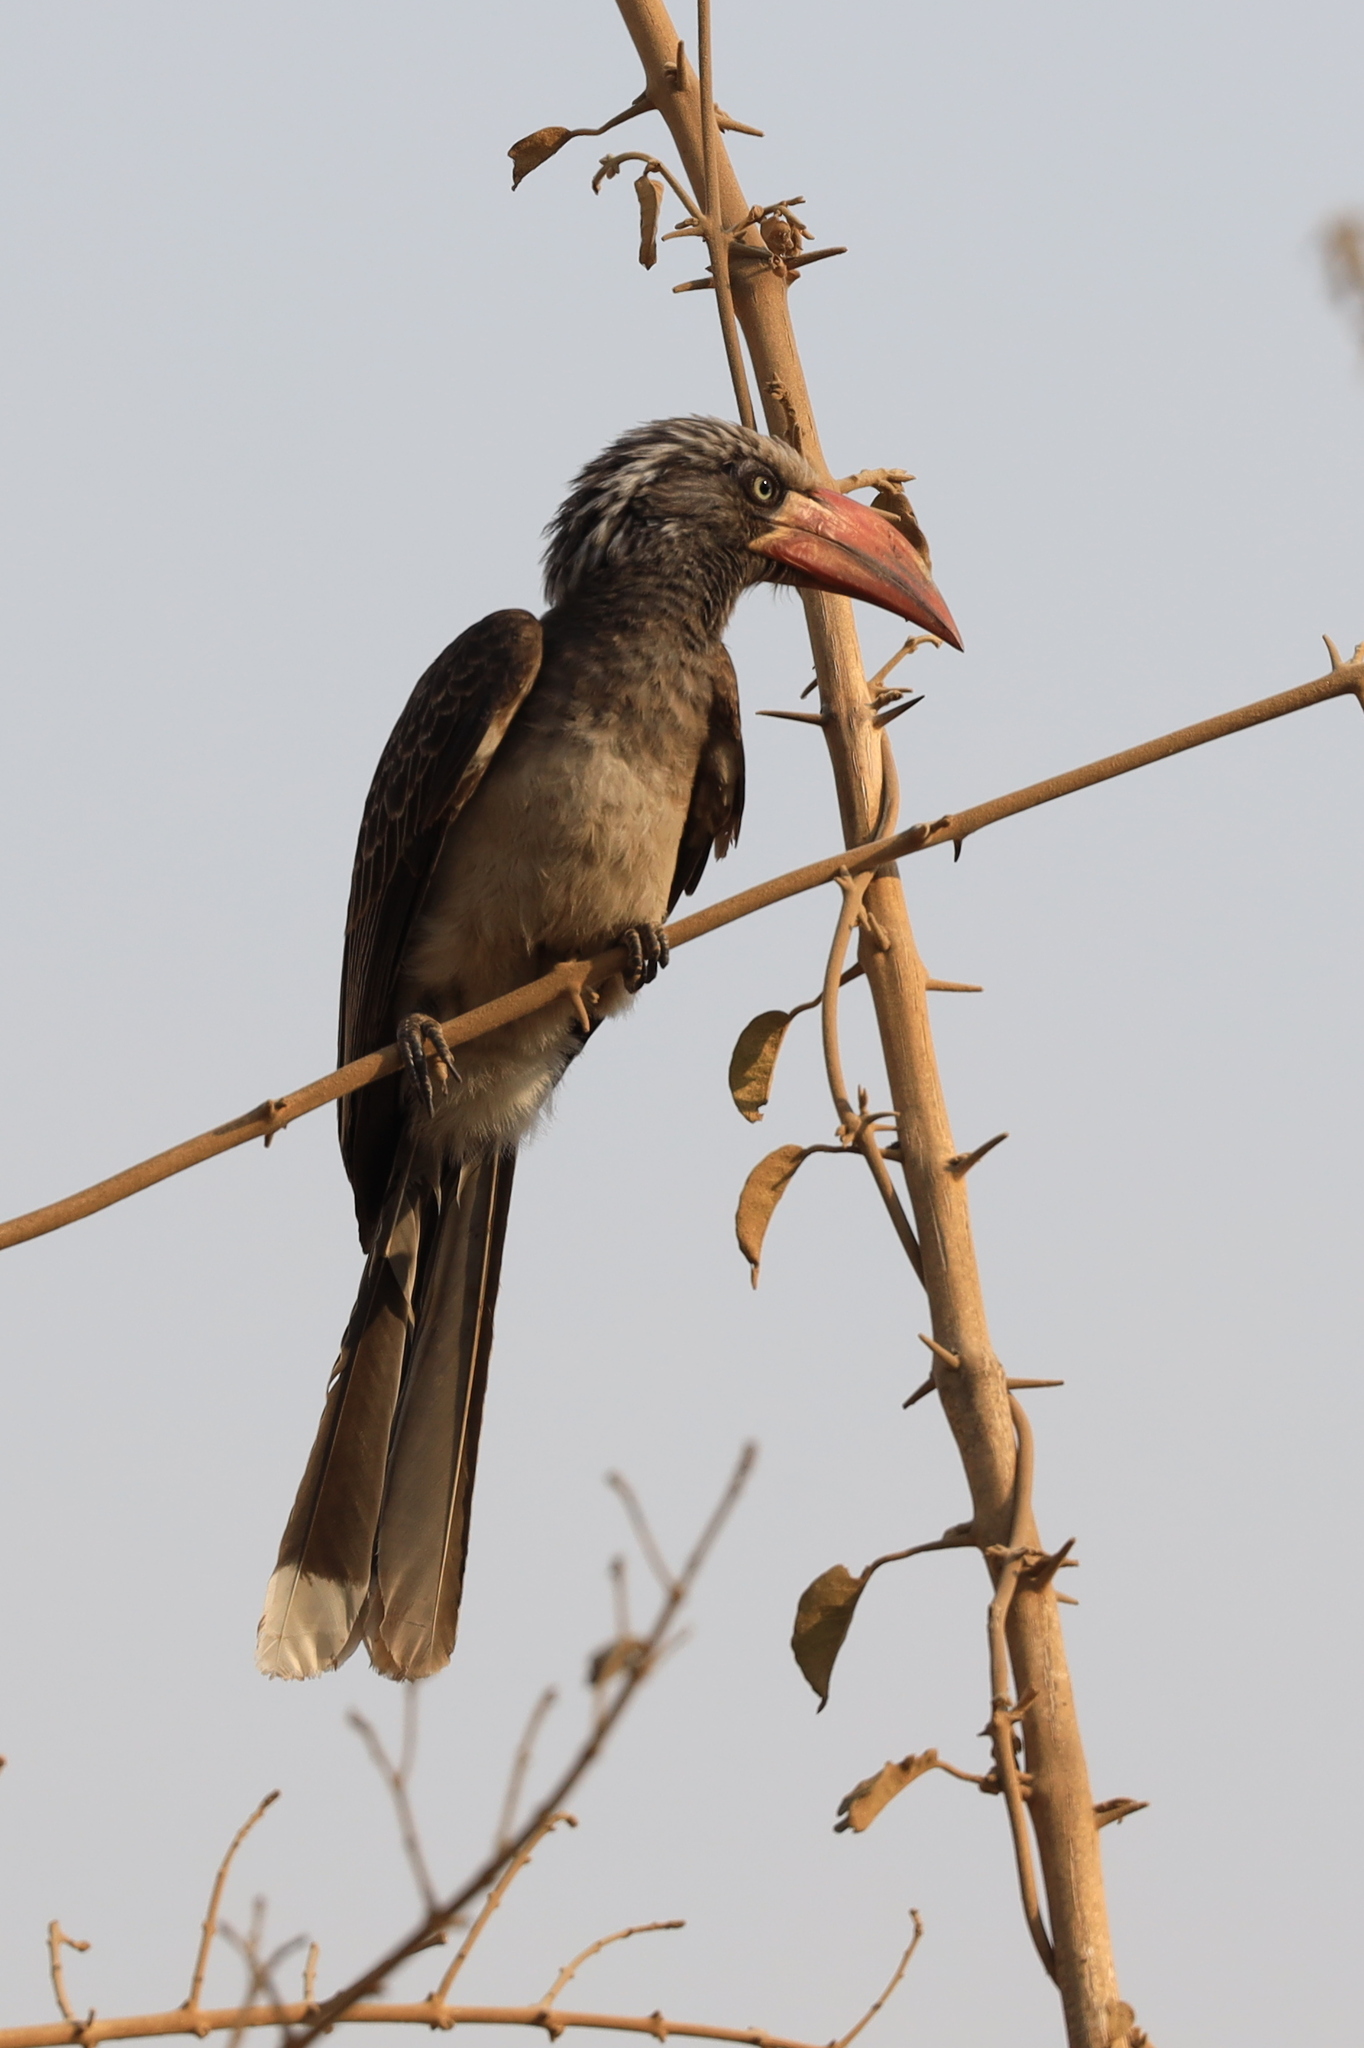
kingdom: Animalia
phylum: Chordata
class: Aves
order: Bucerotiformes
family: Bucerotidae
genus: Lophoceros
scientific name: Lophoceros alboterminatus
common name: Crowned hornbill
